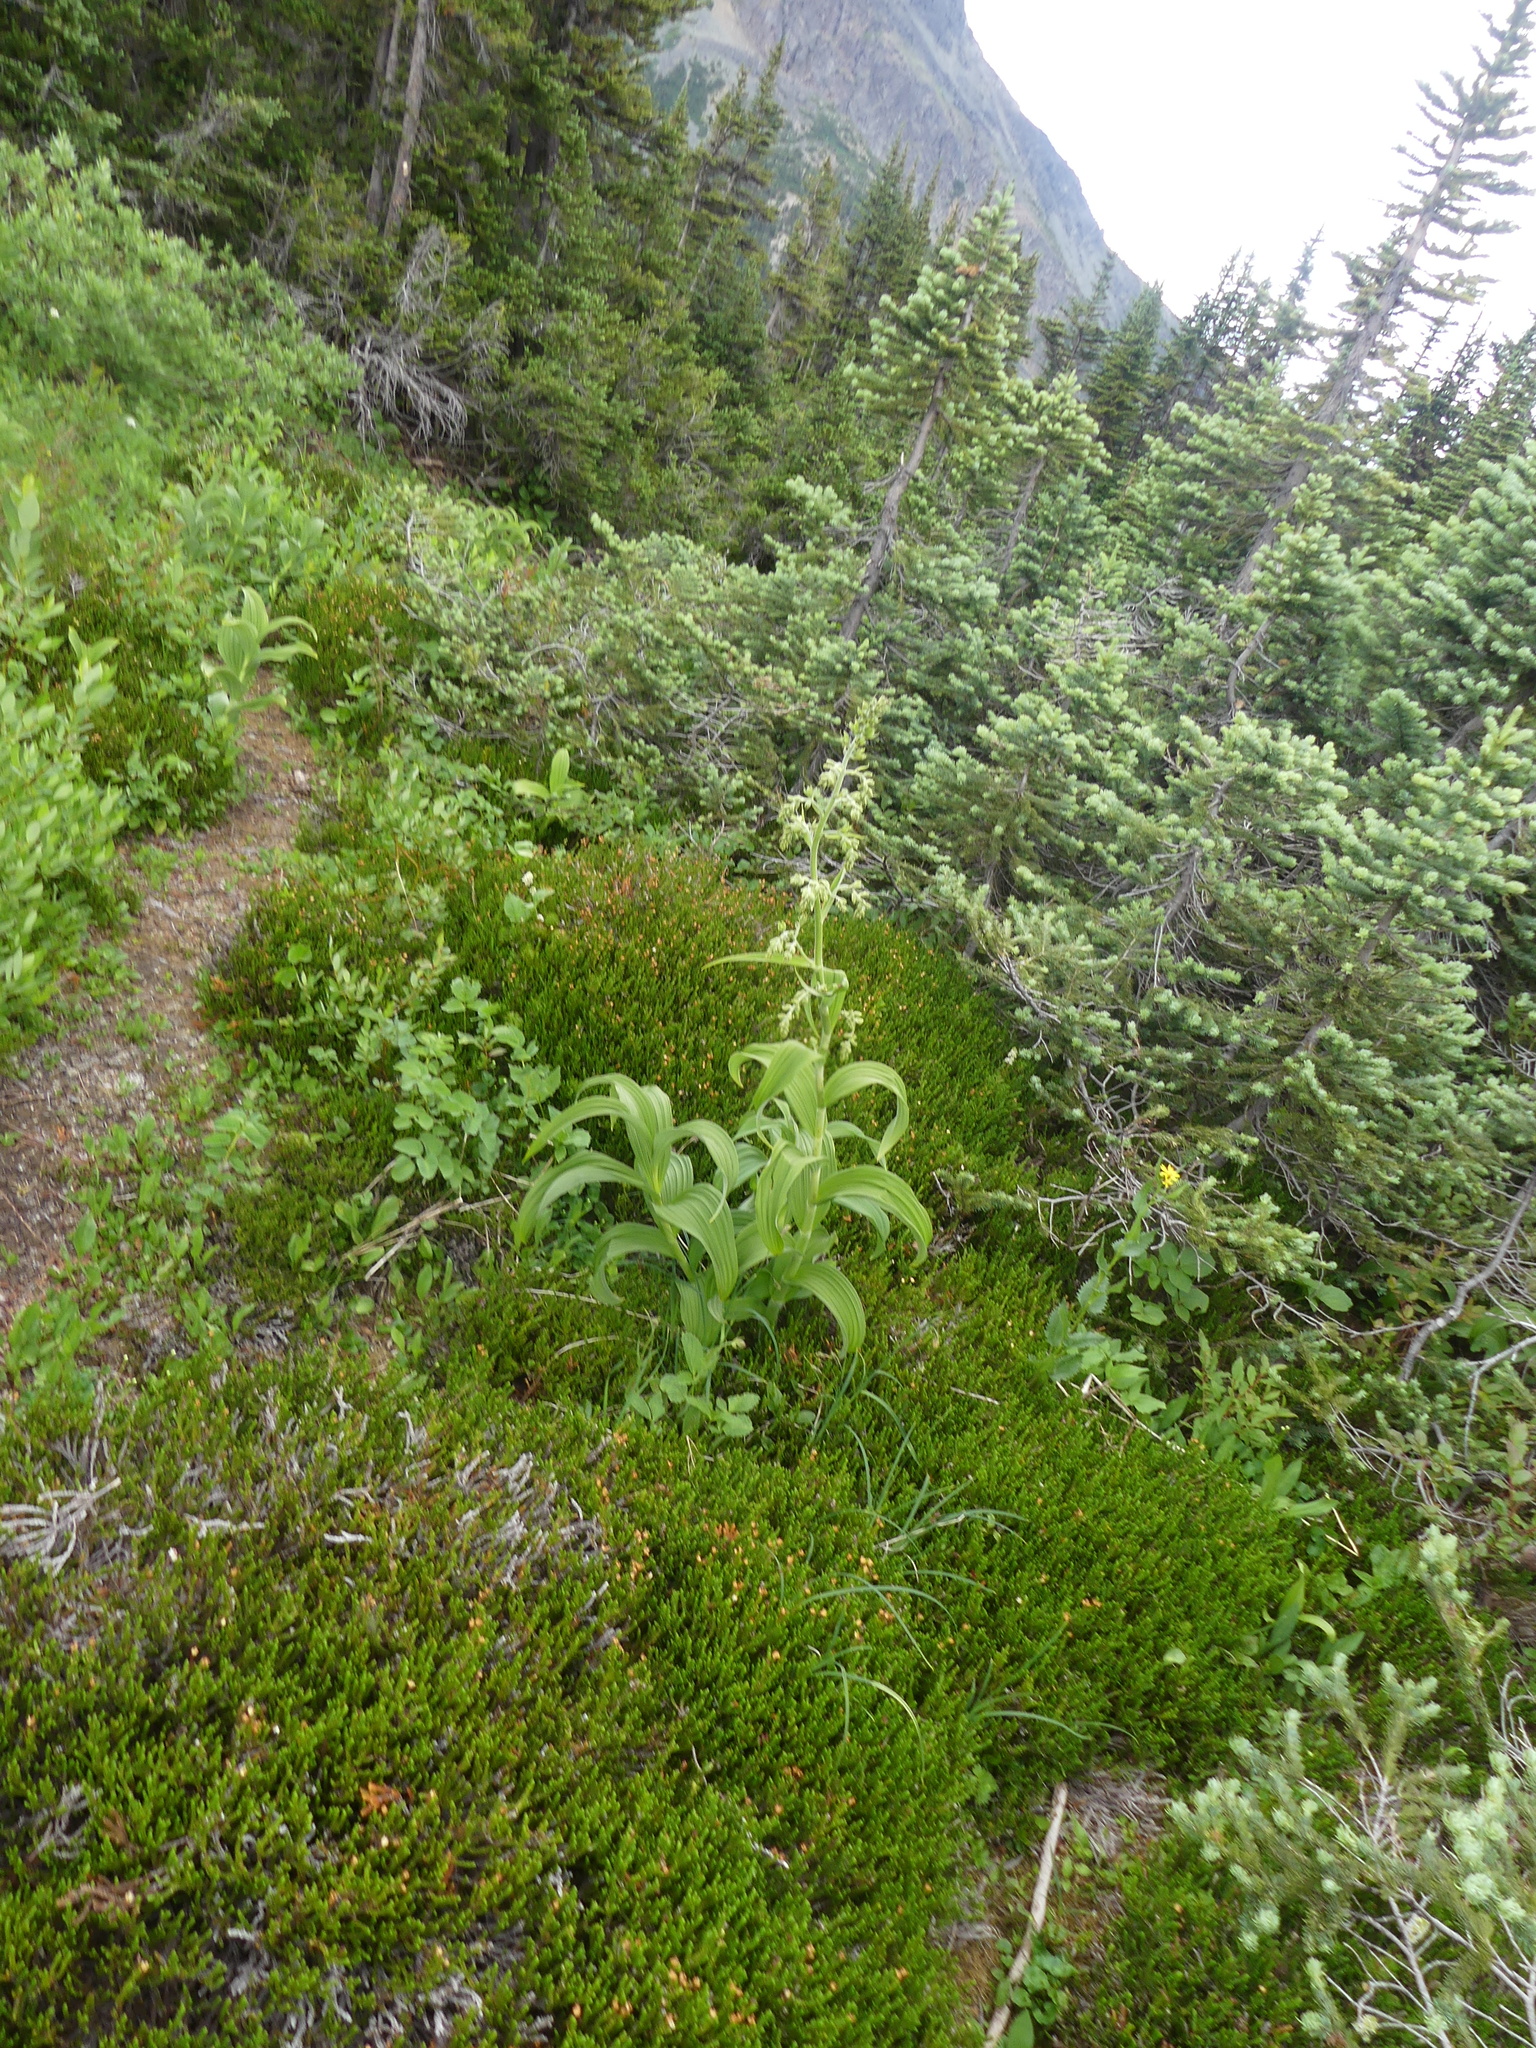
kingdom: Plantae
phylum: Tracheophyta
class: Liliopsida
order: Liliales
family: Melanthiaceae
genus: Veratrum
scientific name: Veratrum viride
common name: American false hellebore
